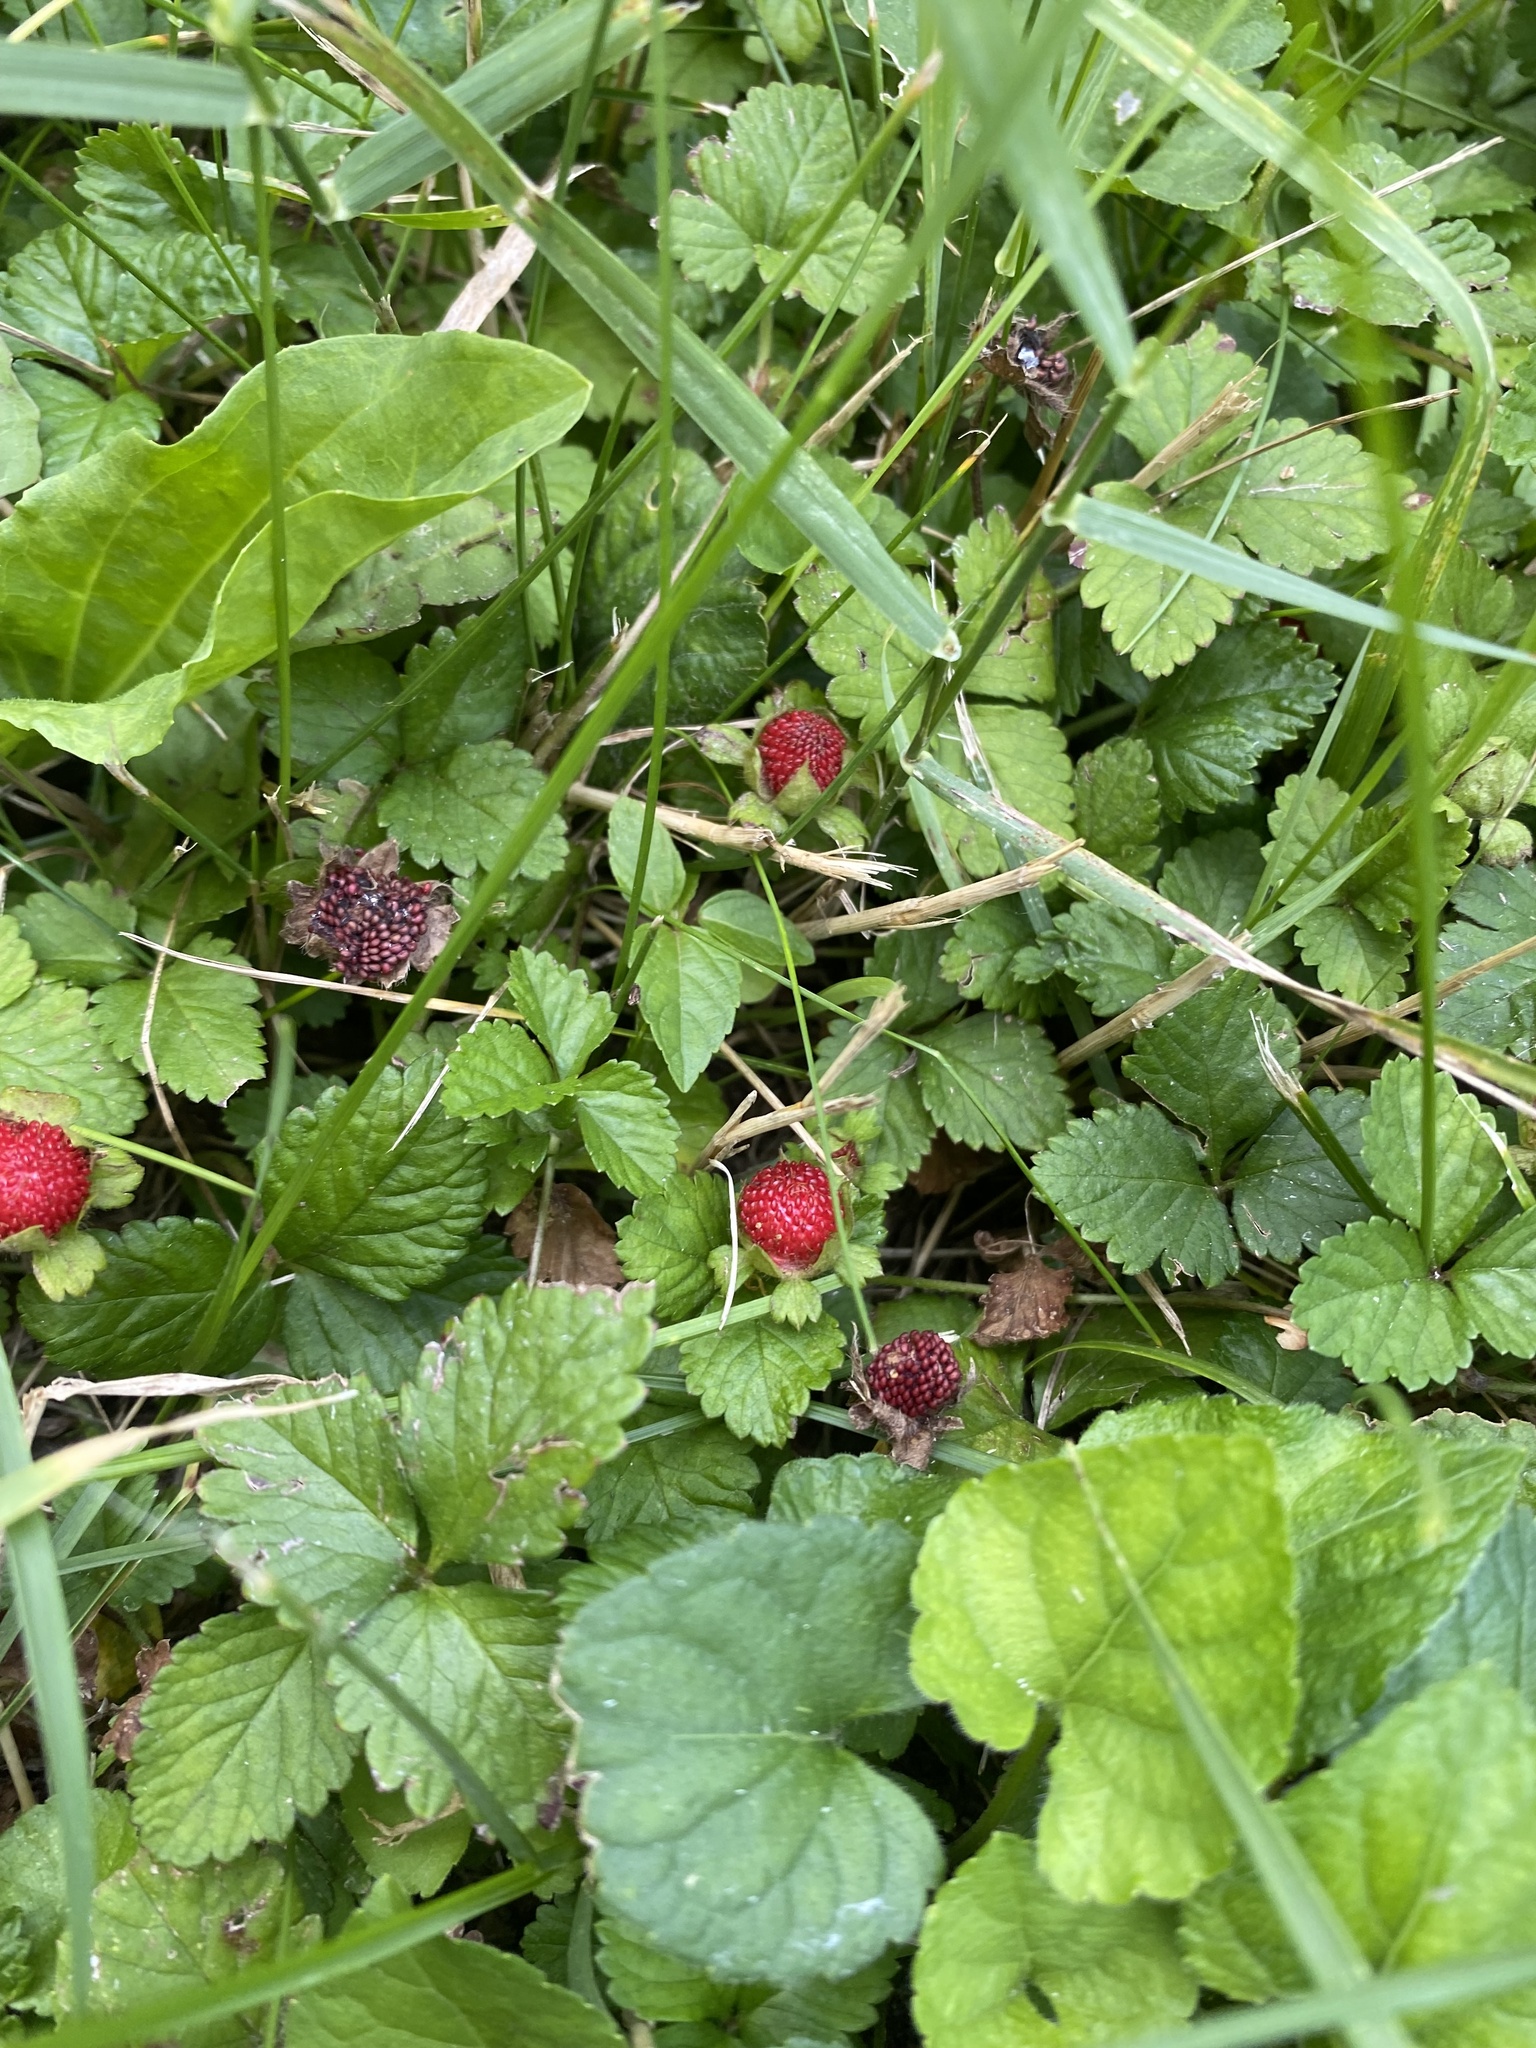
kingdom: Plantae
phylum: Tracheophyta
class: Magnoliopsida
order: Rosales
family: Rosaceae
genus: Potentilla
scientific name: Potentilla indica
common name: Yellow-flowered strawberry
